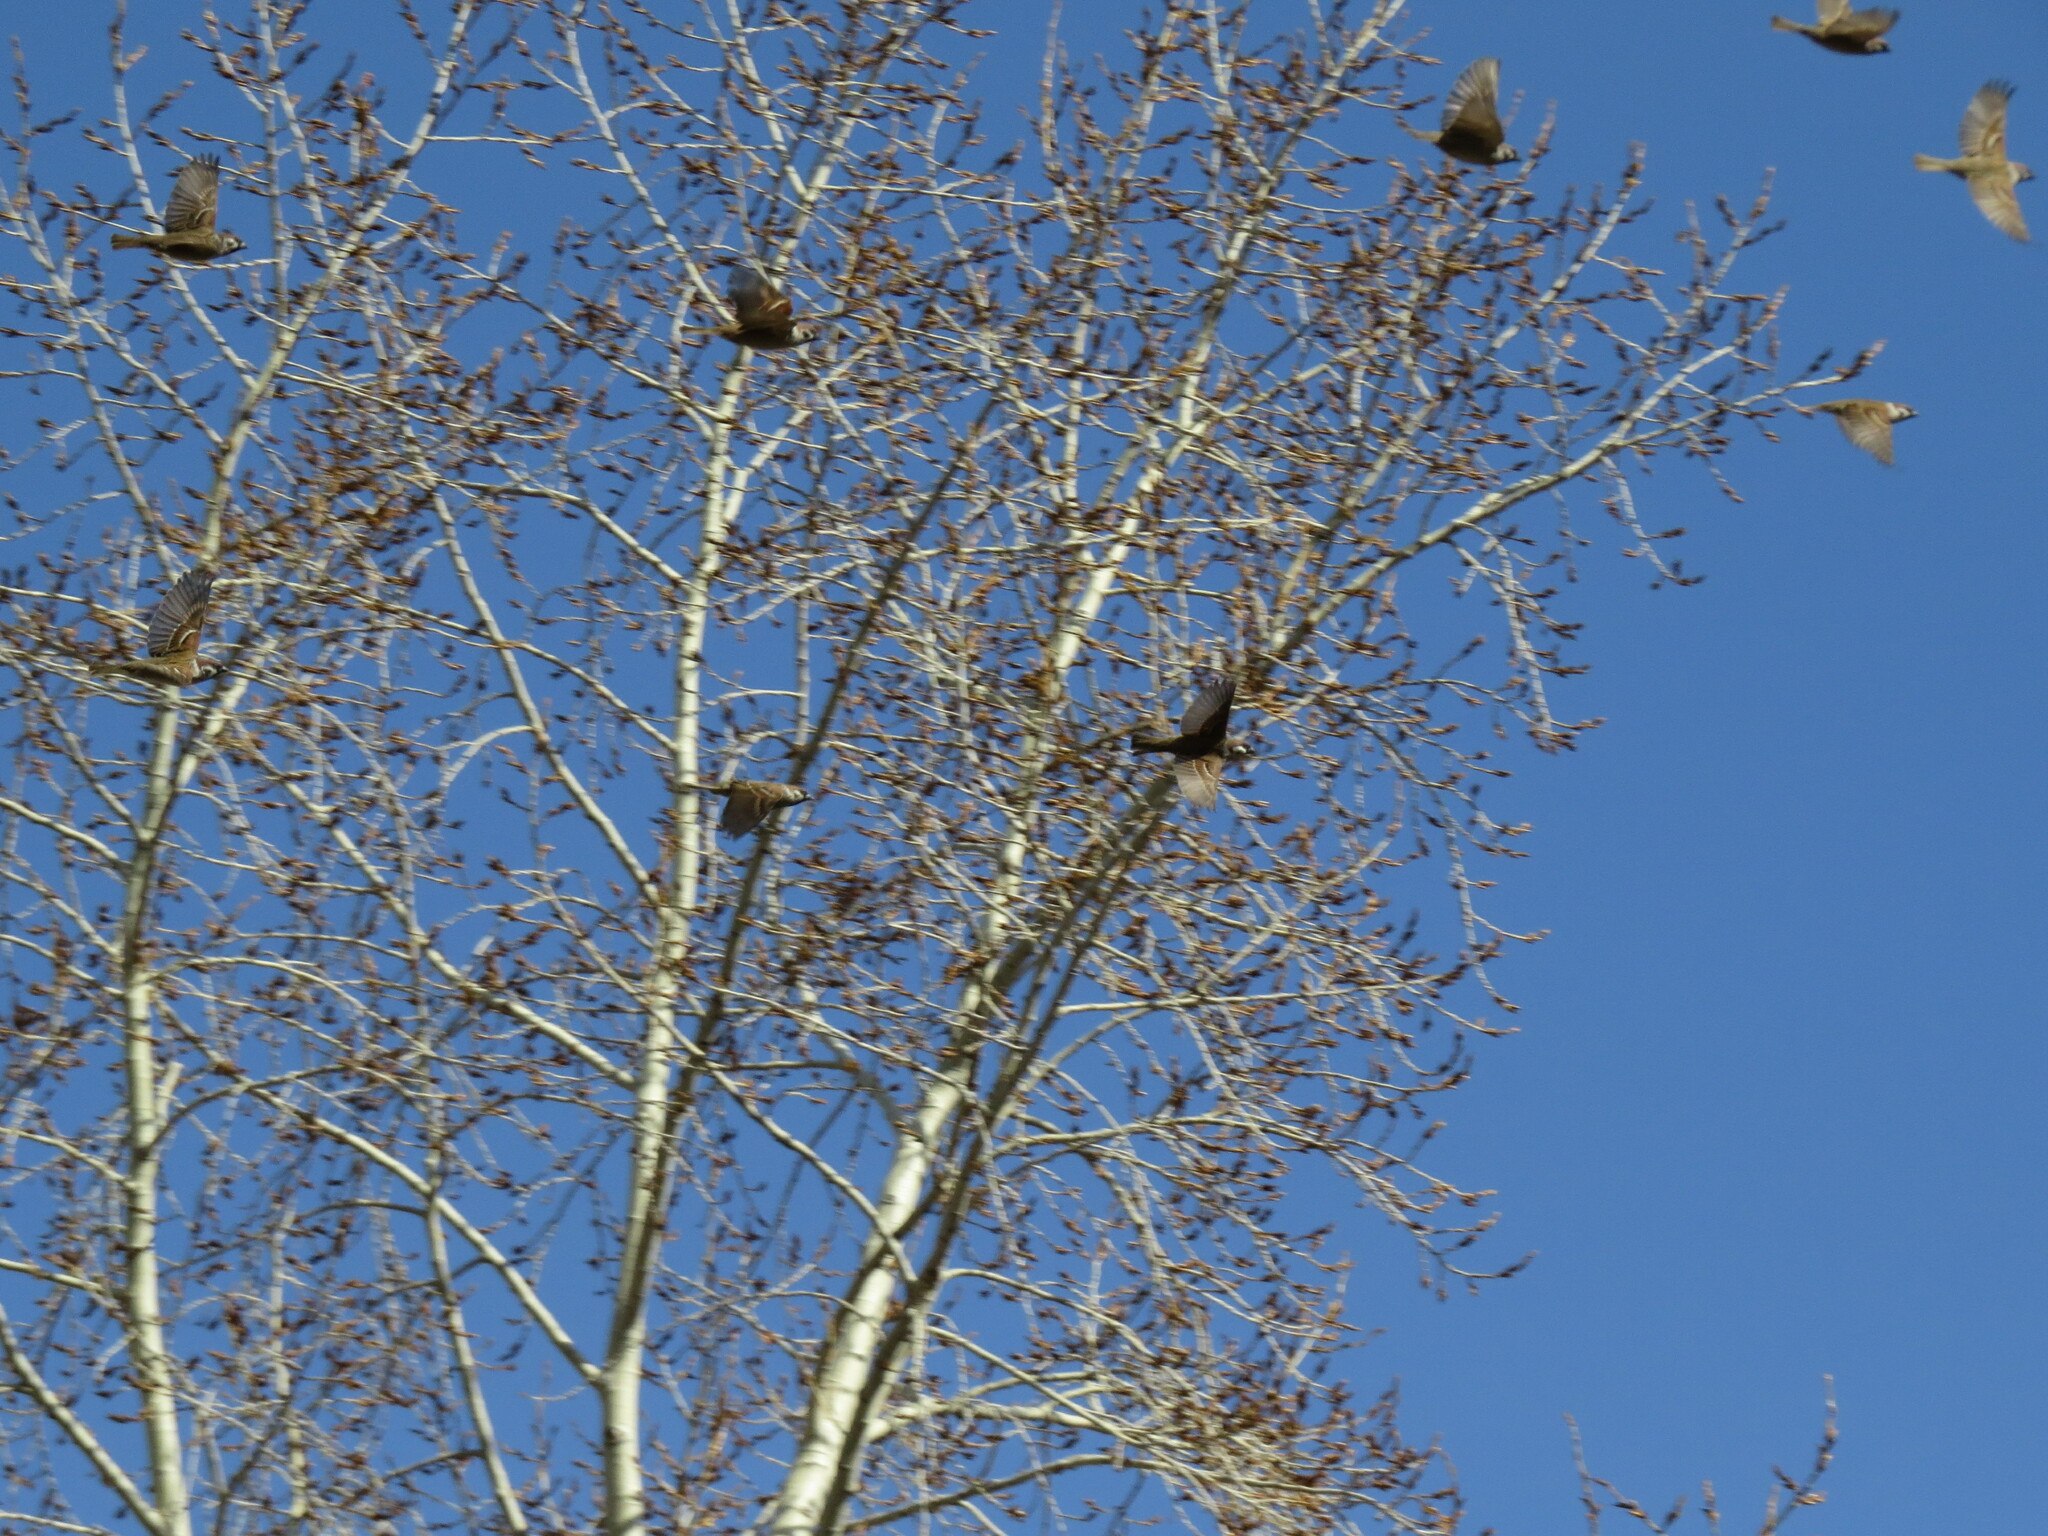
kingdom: Animalia
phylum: Chordata
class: Aves
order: Passeriformes
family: Passeridae
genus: Passer
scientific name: Passer montanus
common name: Eurasian tree sparrow
